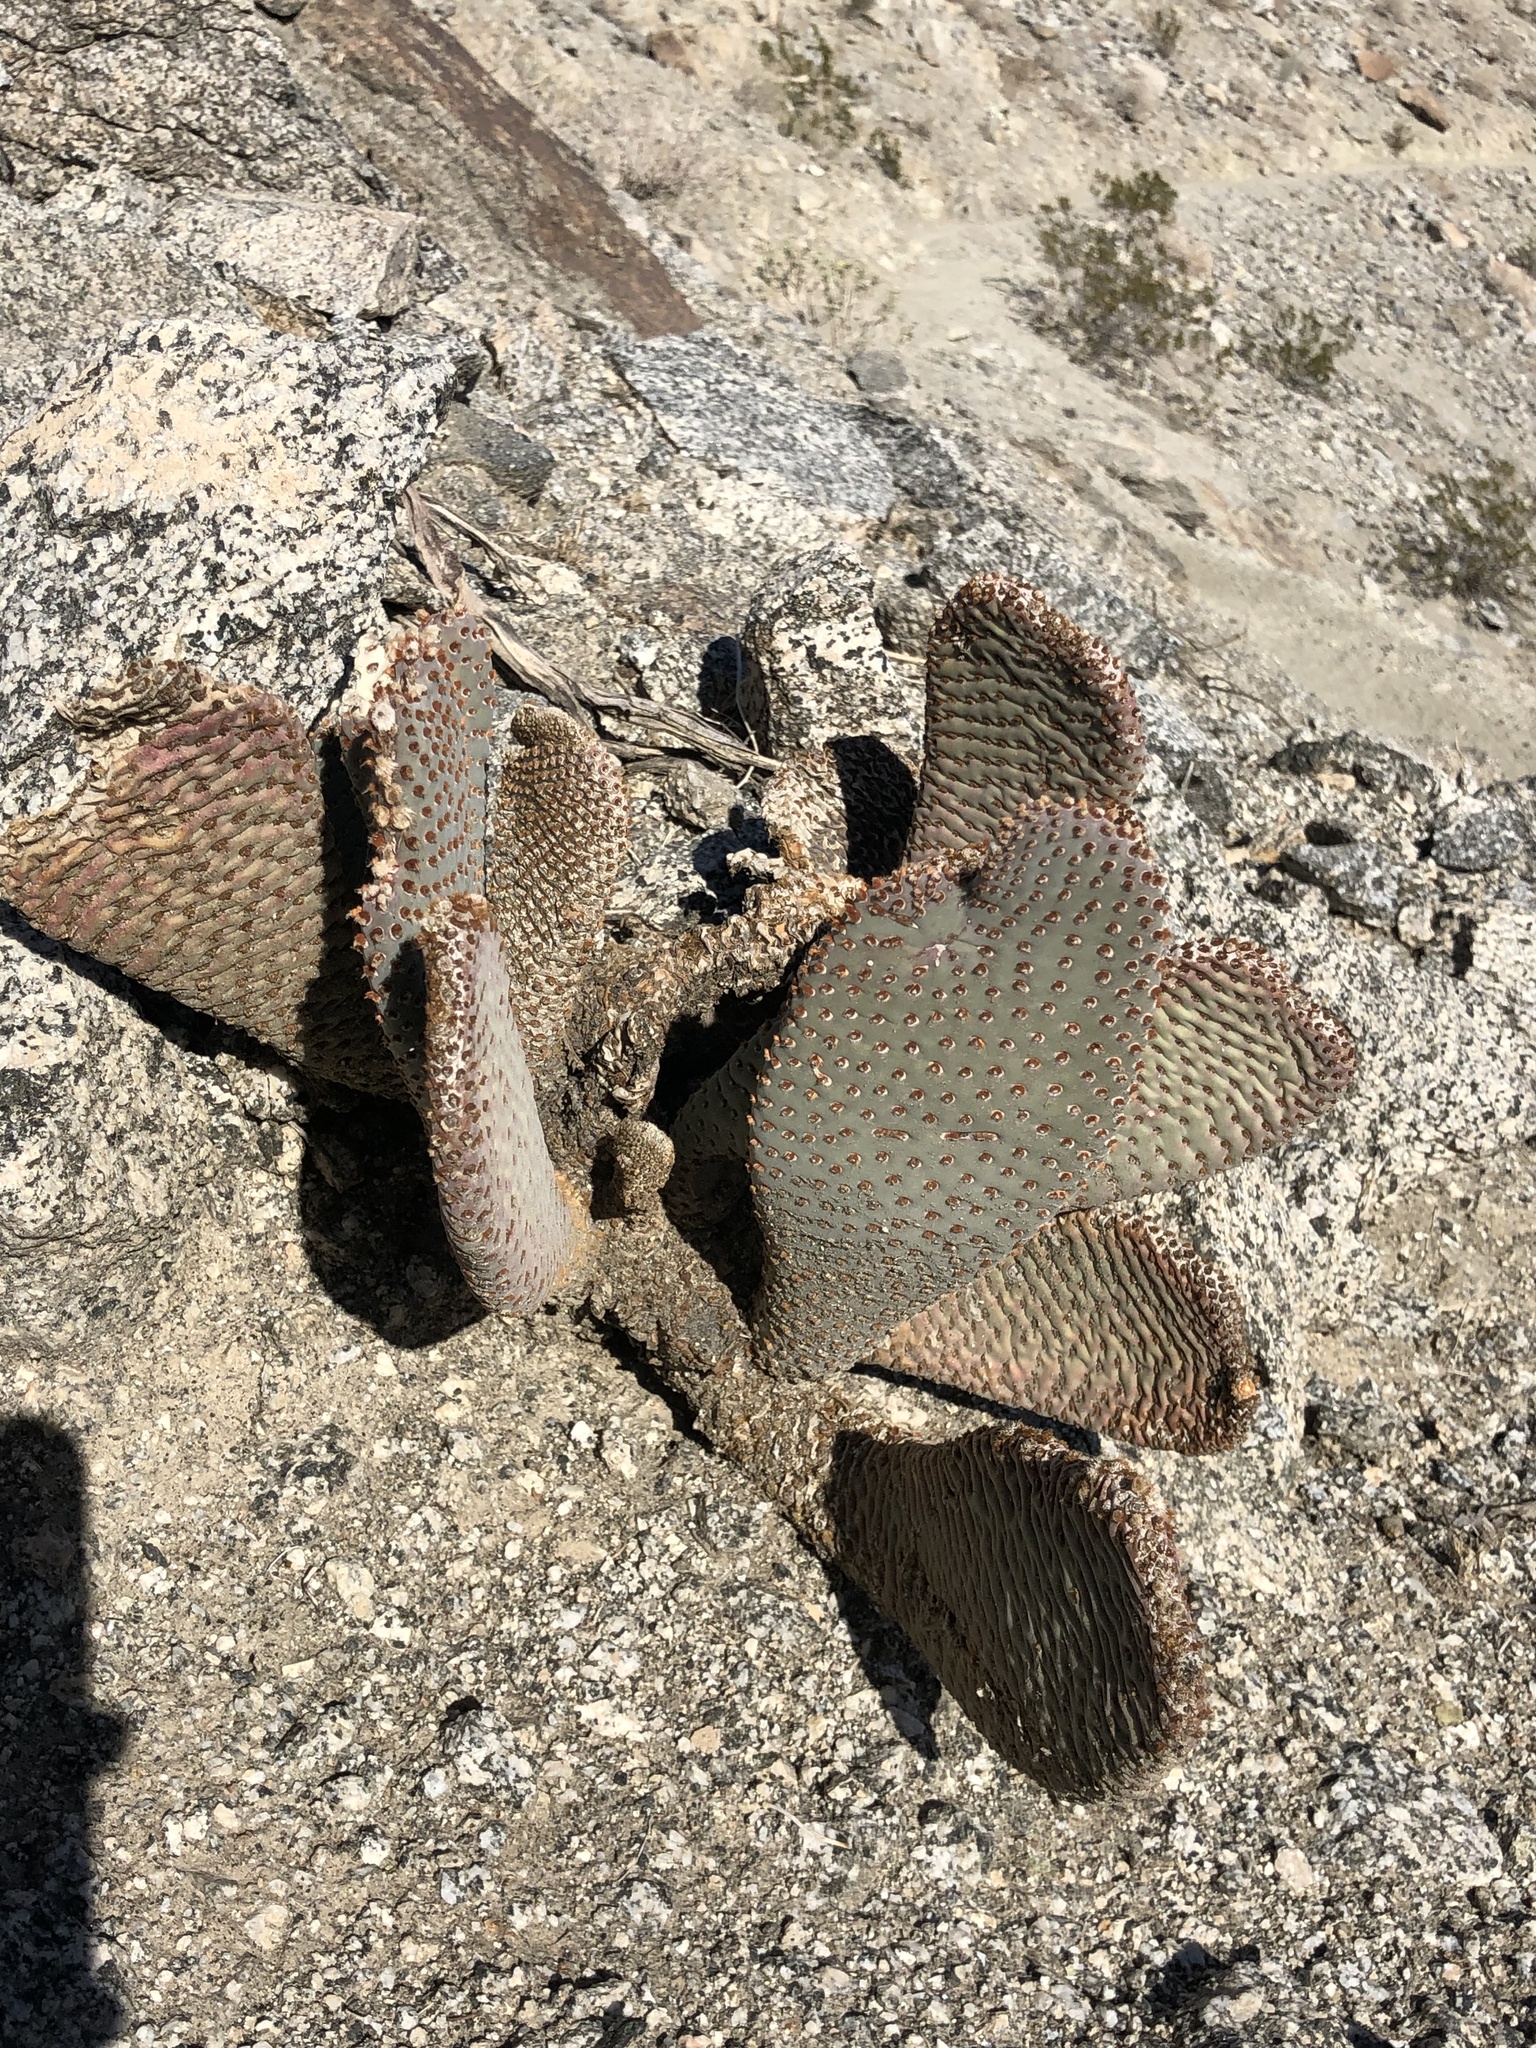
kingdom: Plantae
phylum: Tracheophyta
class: Magnoliopsida
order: Caryophyllales
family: Cactaceae
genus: Opuntia
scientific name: Opuntia basilaris
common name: Beavertail prickly-pear
